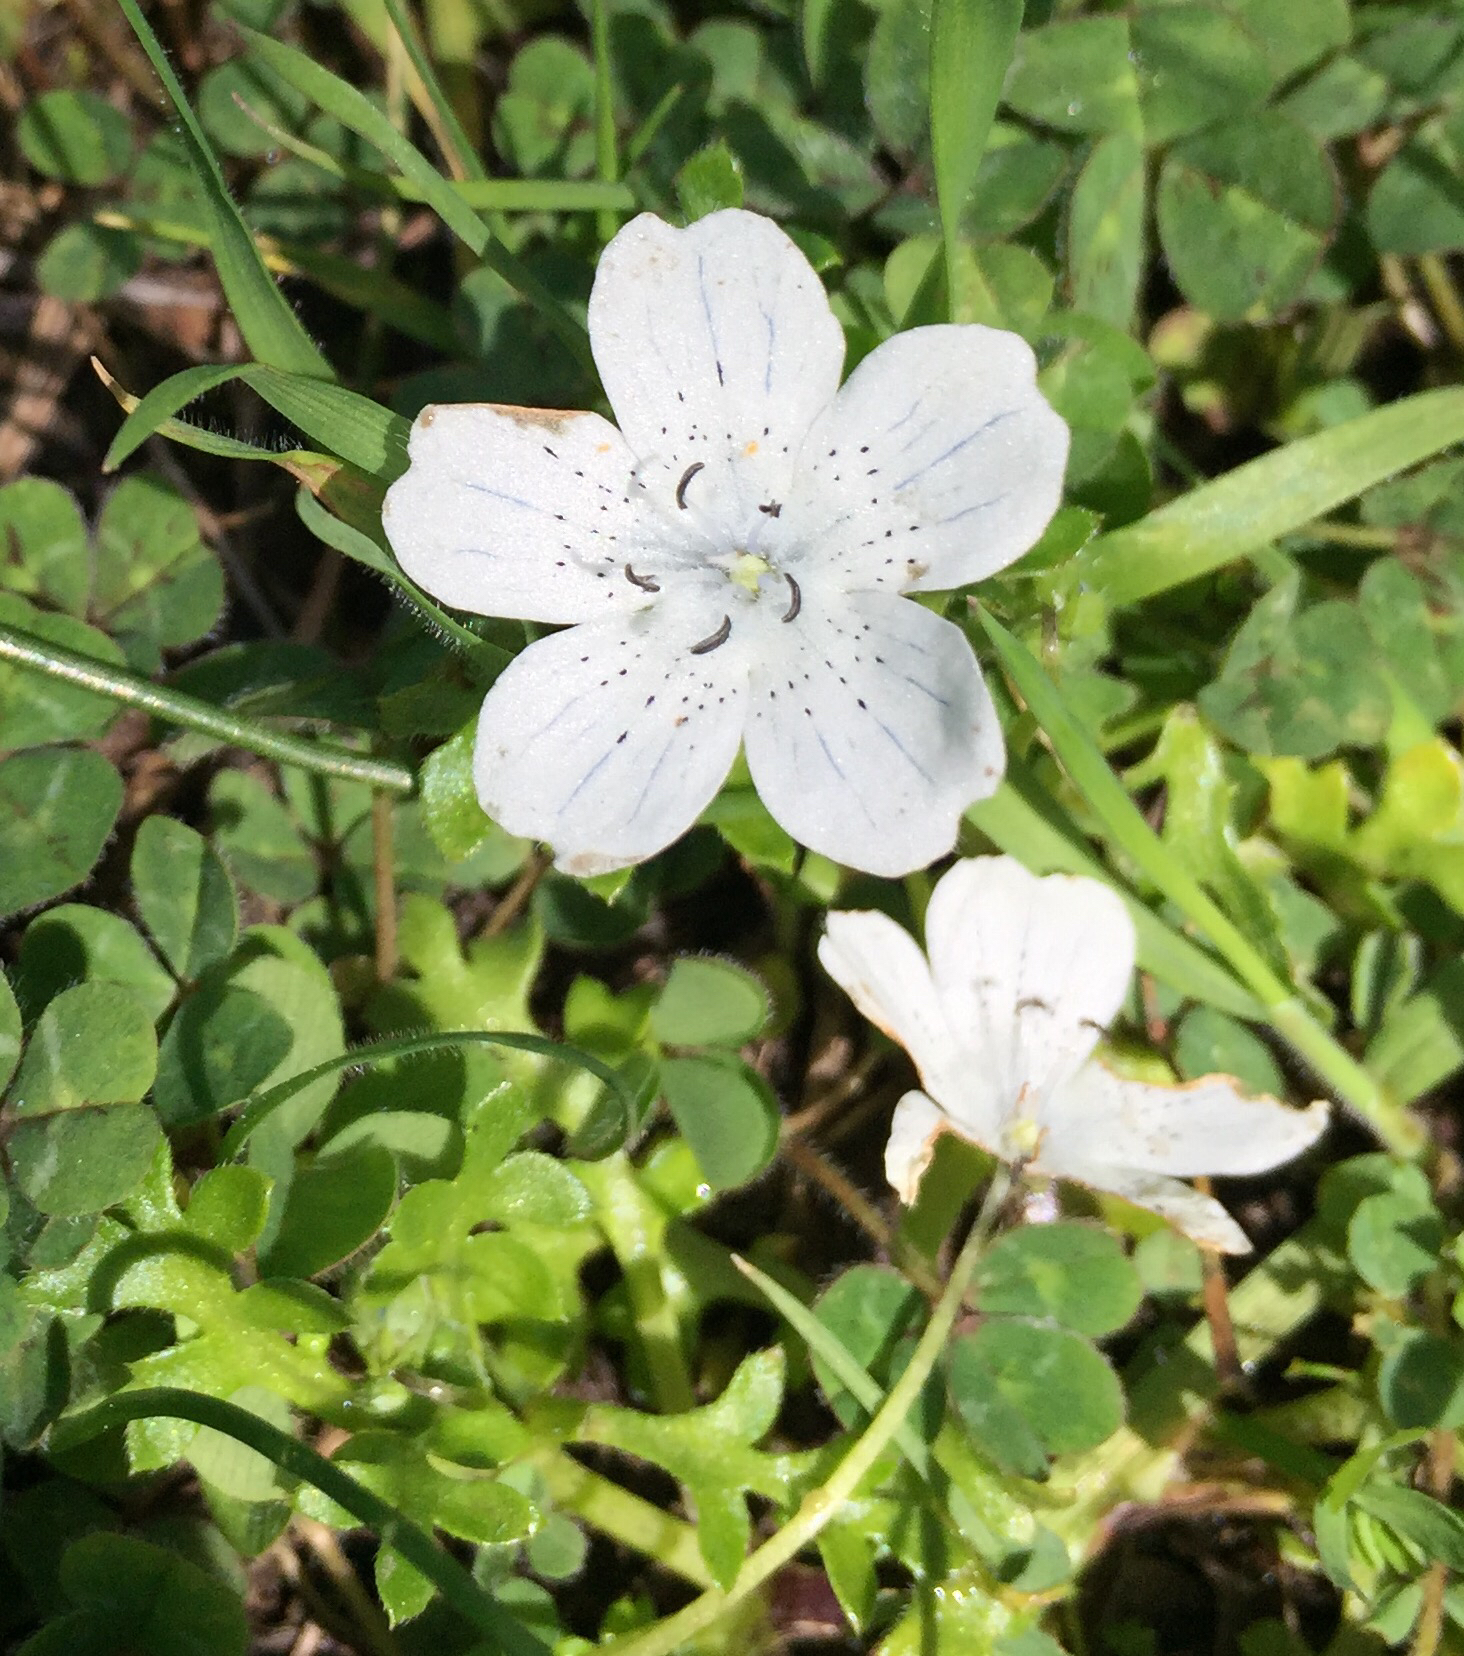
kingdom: Plantae
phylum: Tracheophyta
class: Magnoliopsida
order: Boraginales
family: Hydrophyllaceae
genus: Nemophila
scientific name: Nemophila menziesii
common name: Baby's-blue-eyes
